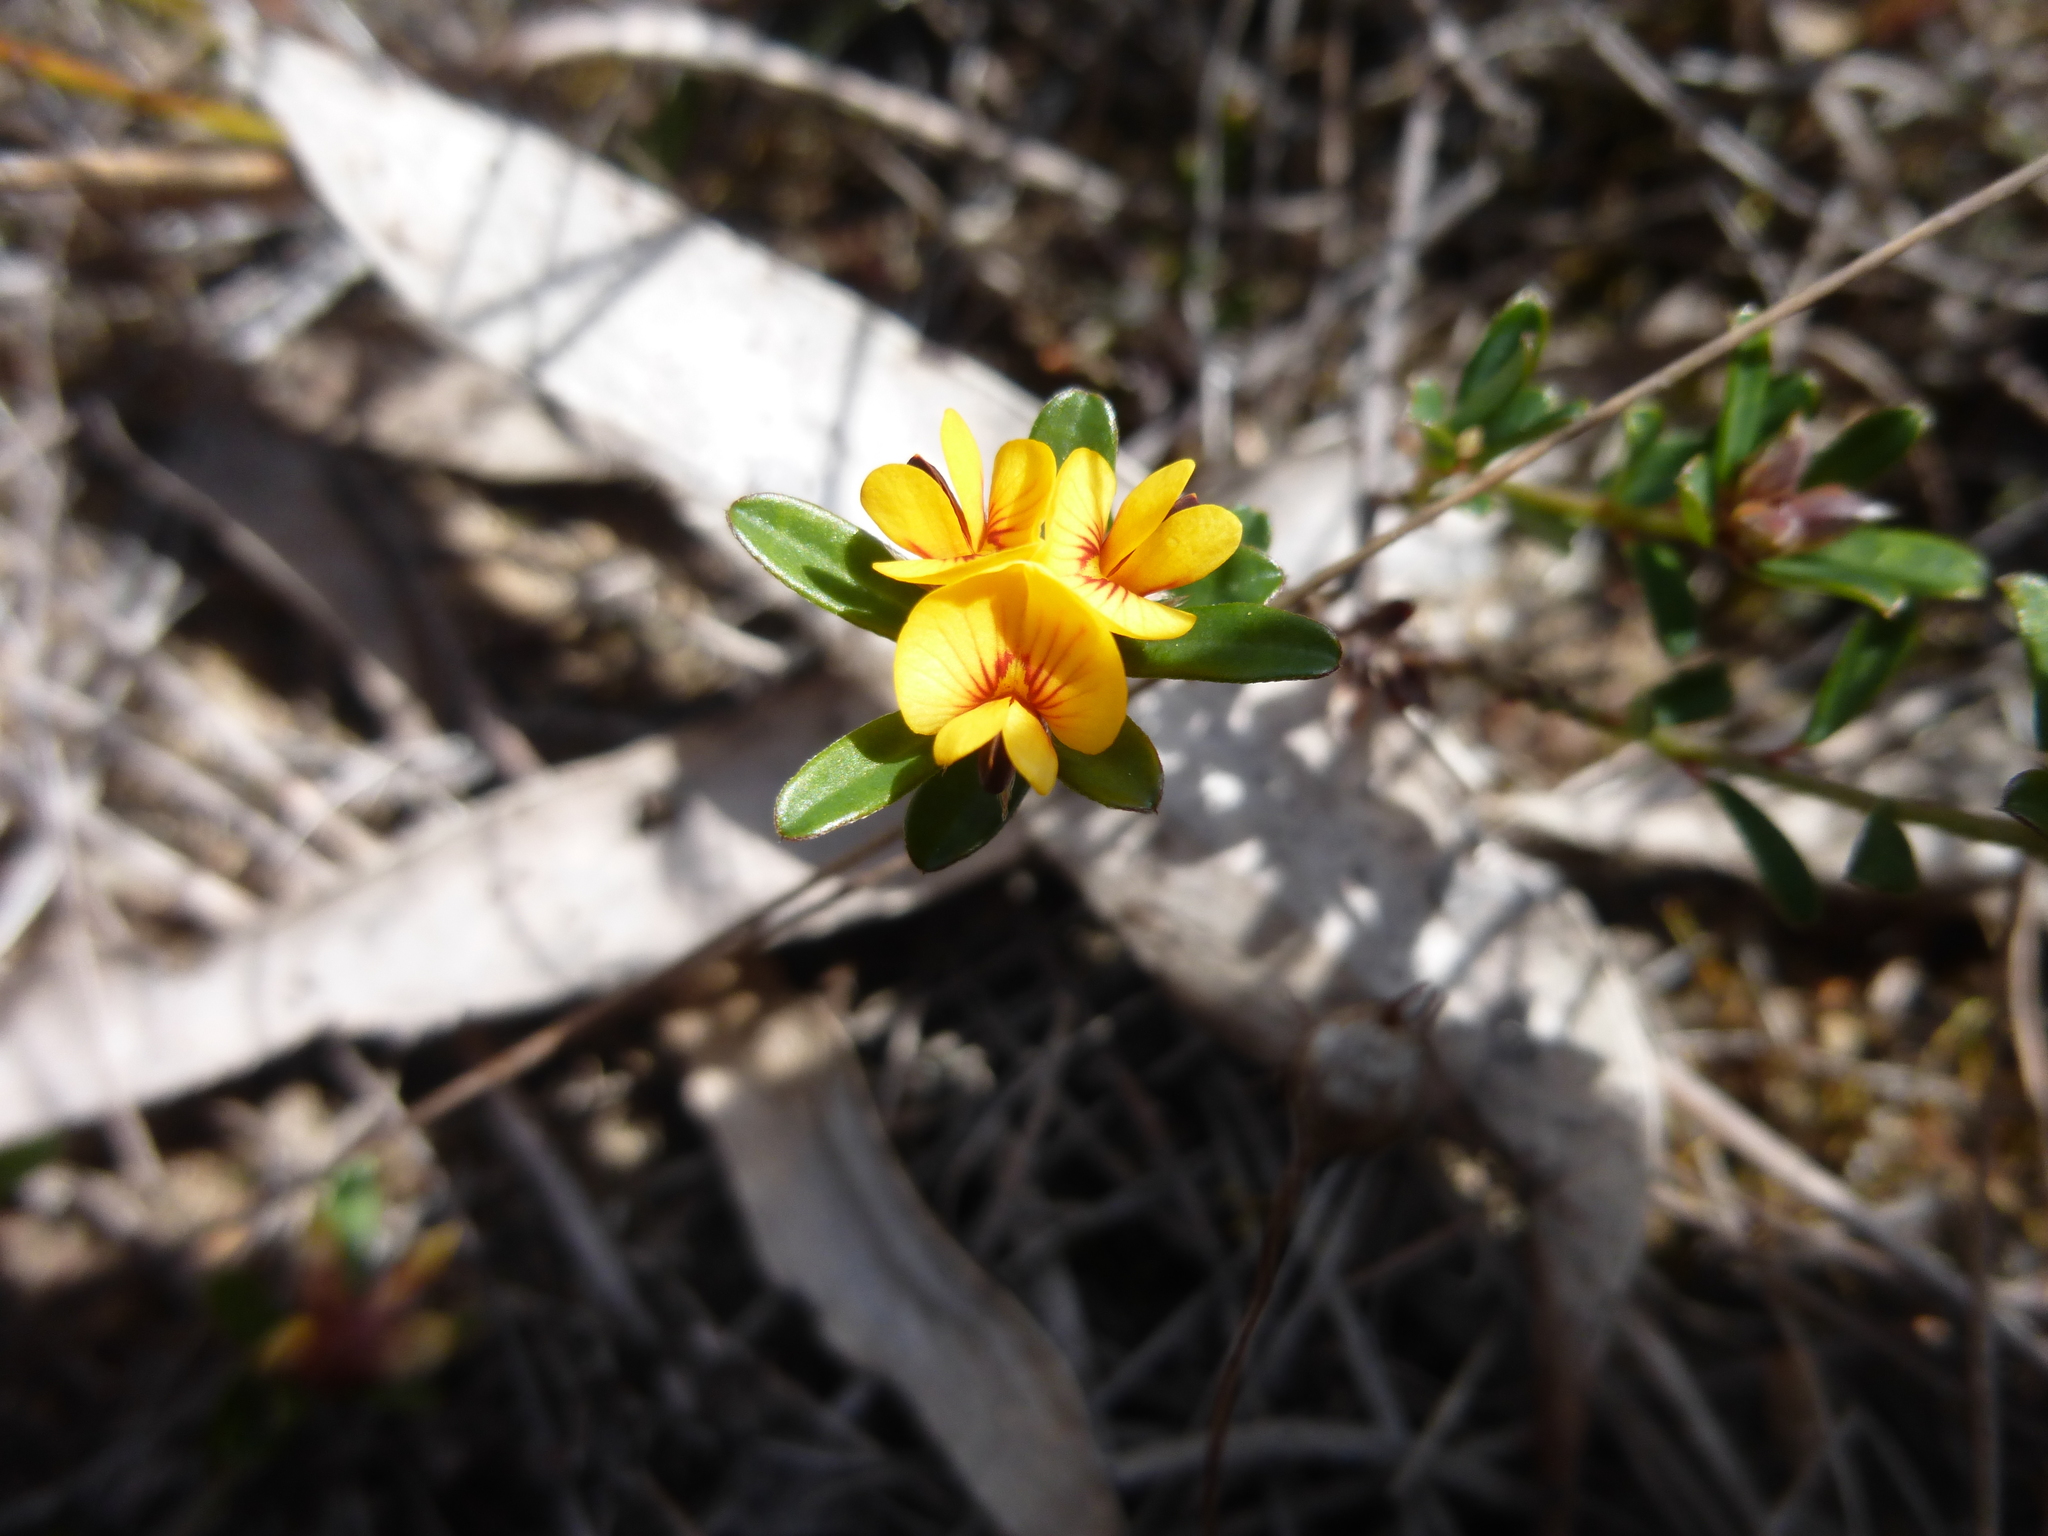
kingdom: Plantae
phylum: Tracheophyta
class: Magnoliopsida
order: Fabales
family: Fabaceae
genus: Pultenaea
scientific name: Pultenaea daphnoides
